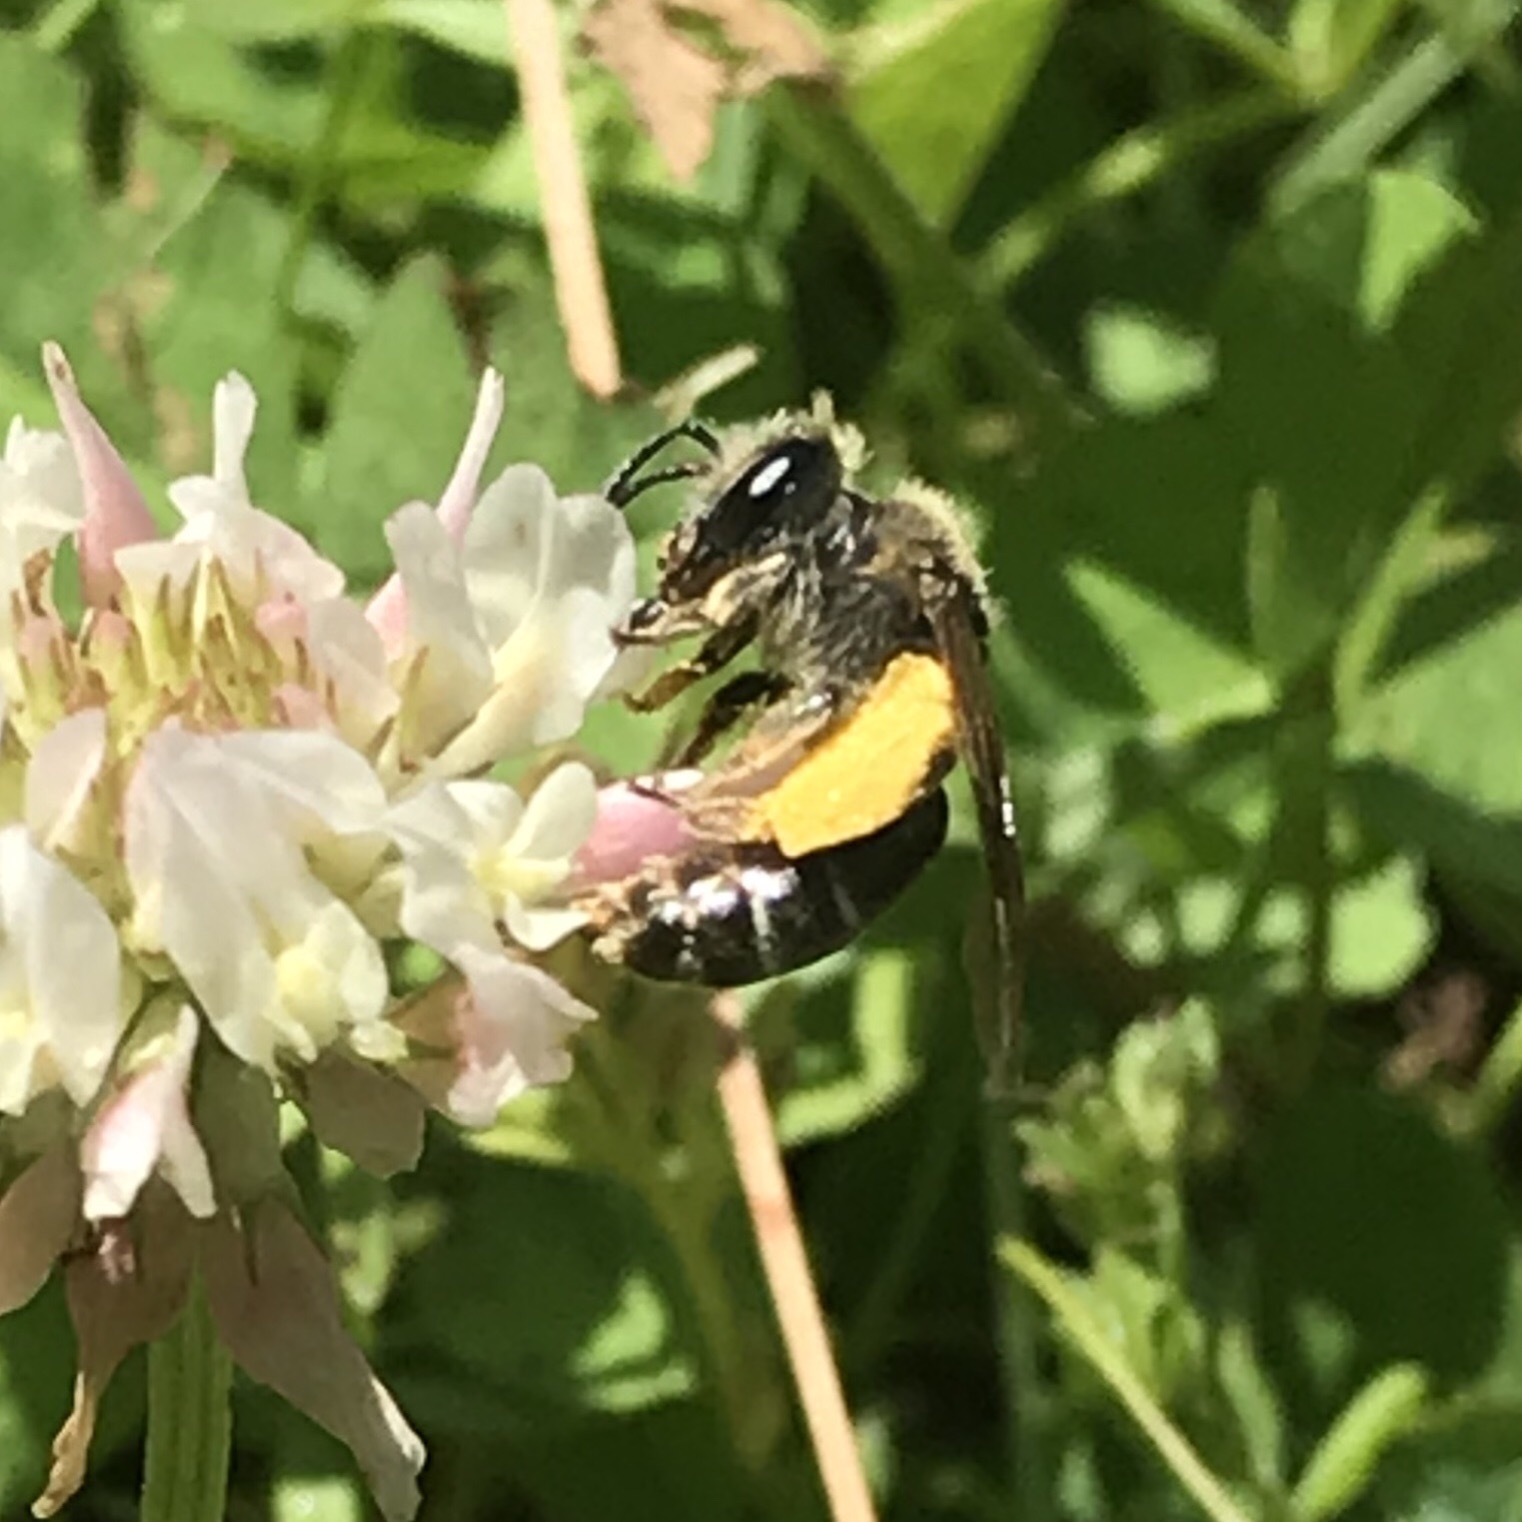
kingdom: Animalia
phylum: Arthropoda
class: Insecta
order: Hymenoptera
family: Andrenidae
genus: Andrena
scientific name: Andrena wilkella
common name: Wilke's mining bee
